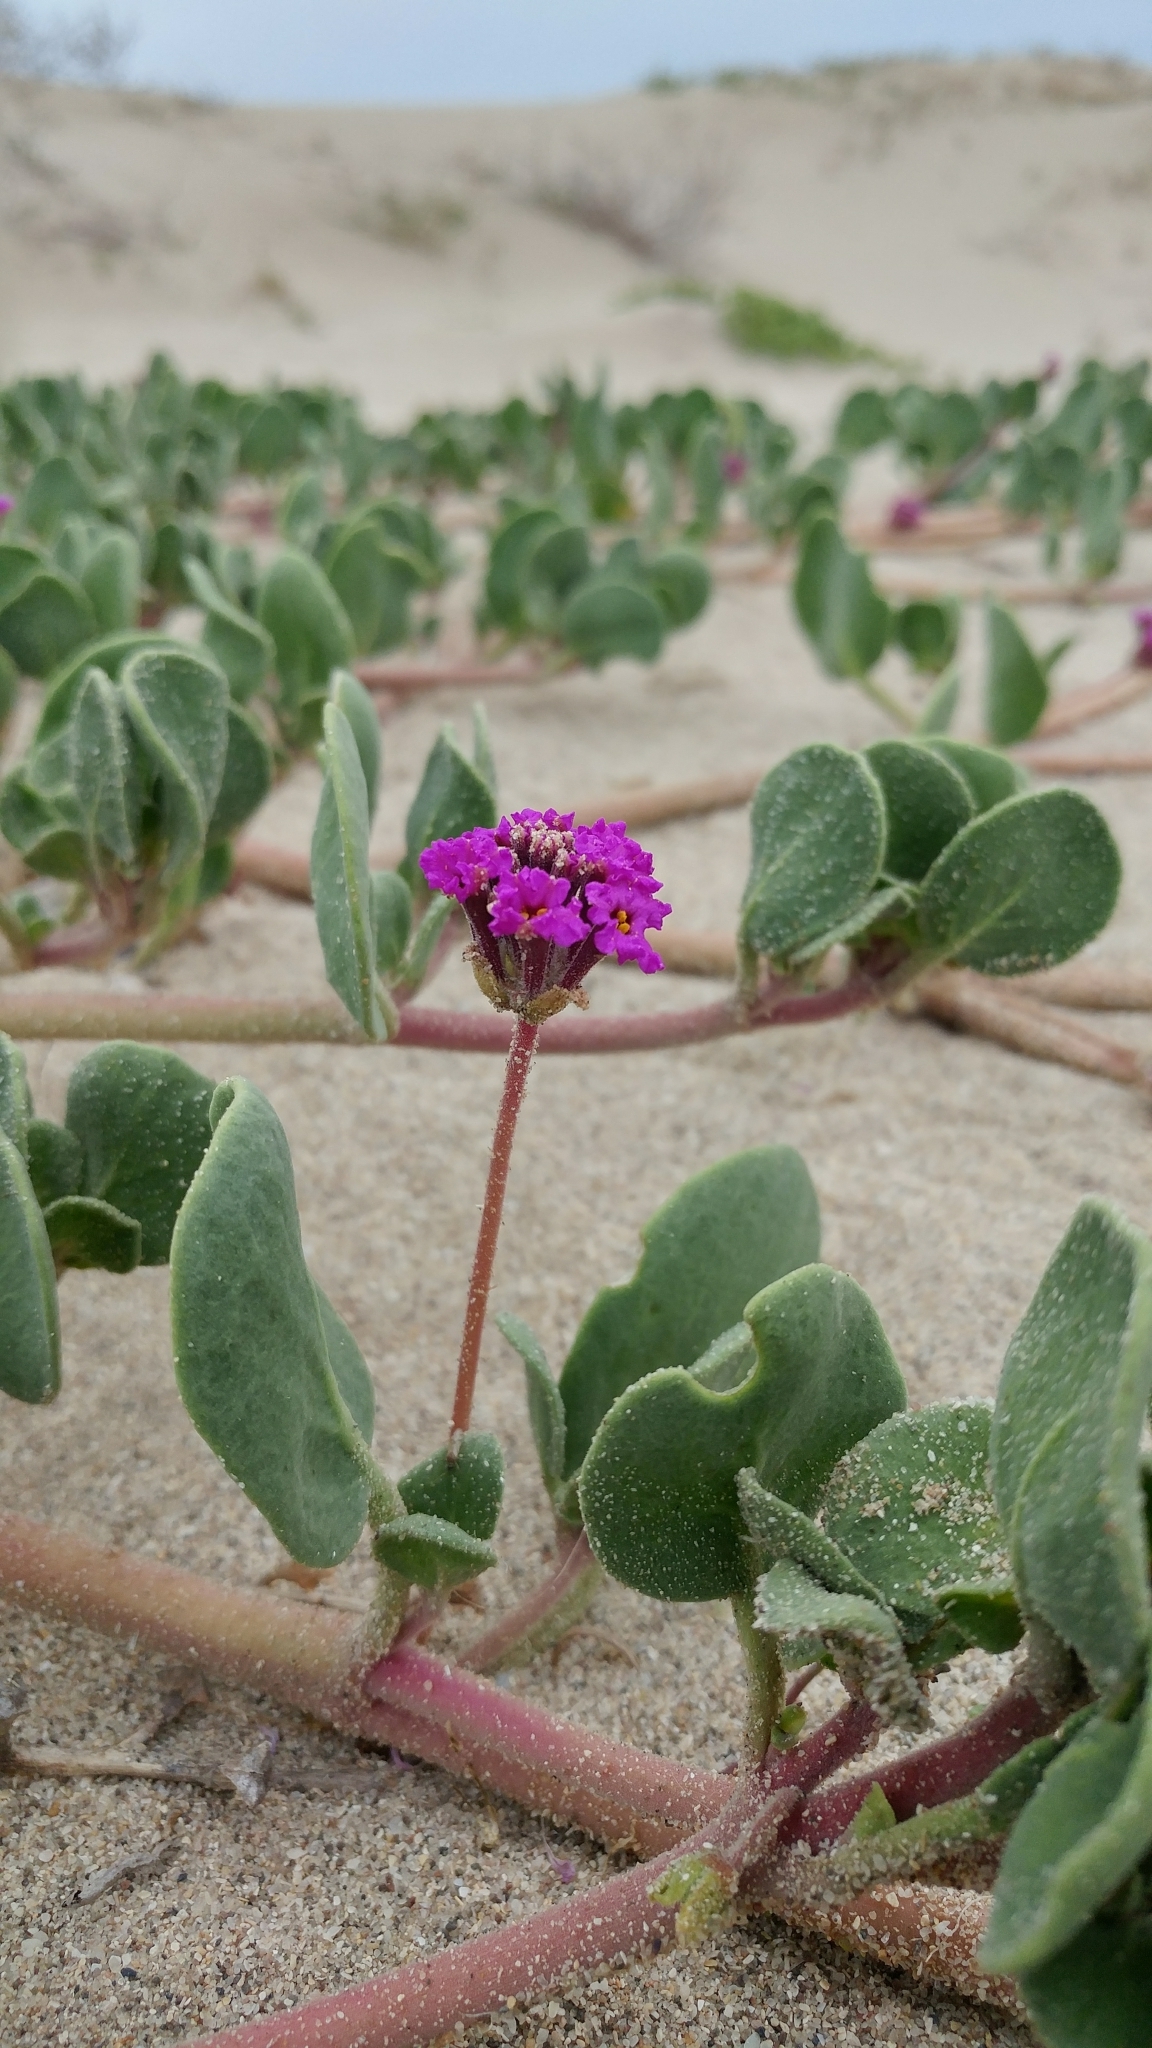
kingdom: Plantae
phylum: Tracheophyta
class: Magnoliopsida
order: Caryophyllales
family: Nyctaginaceae
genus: Abronia
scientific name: Abronia maritima
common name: Red sand-verbena
